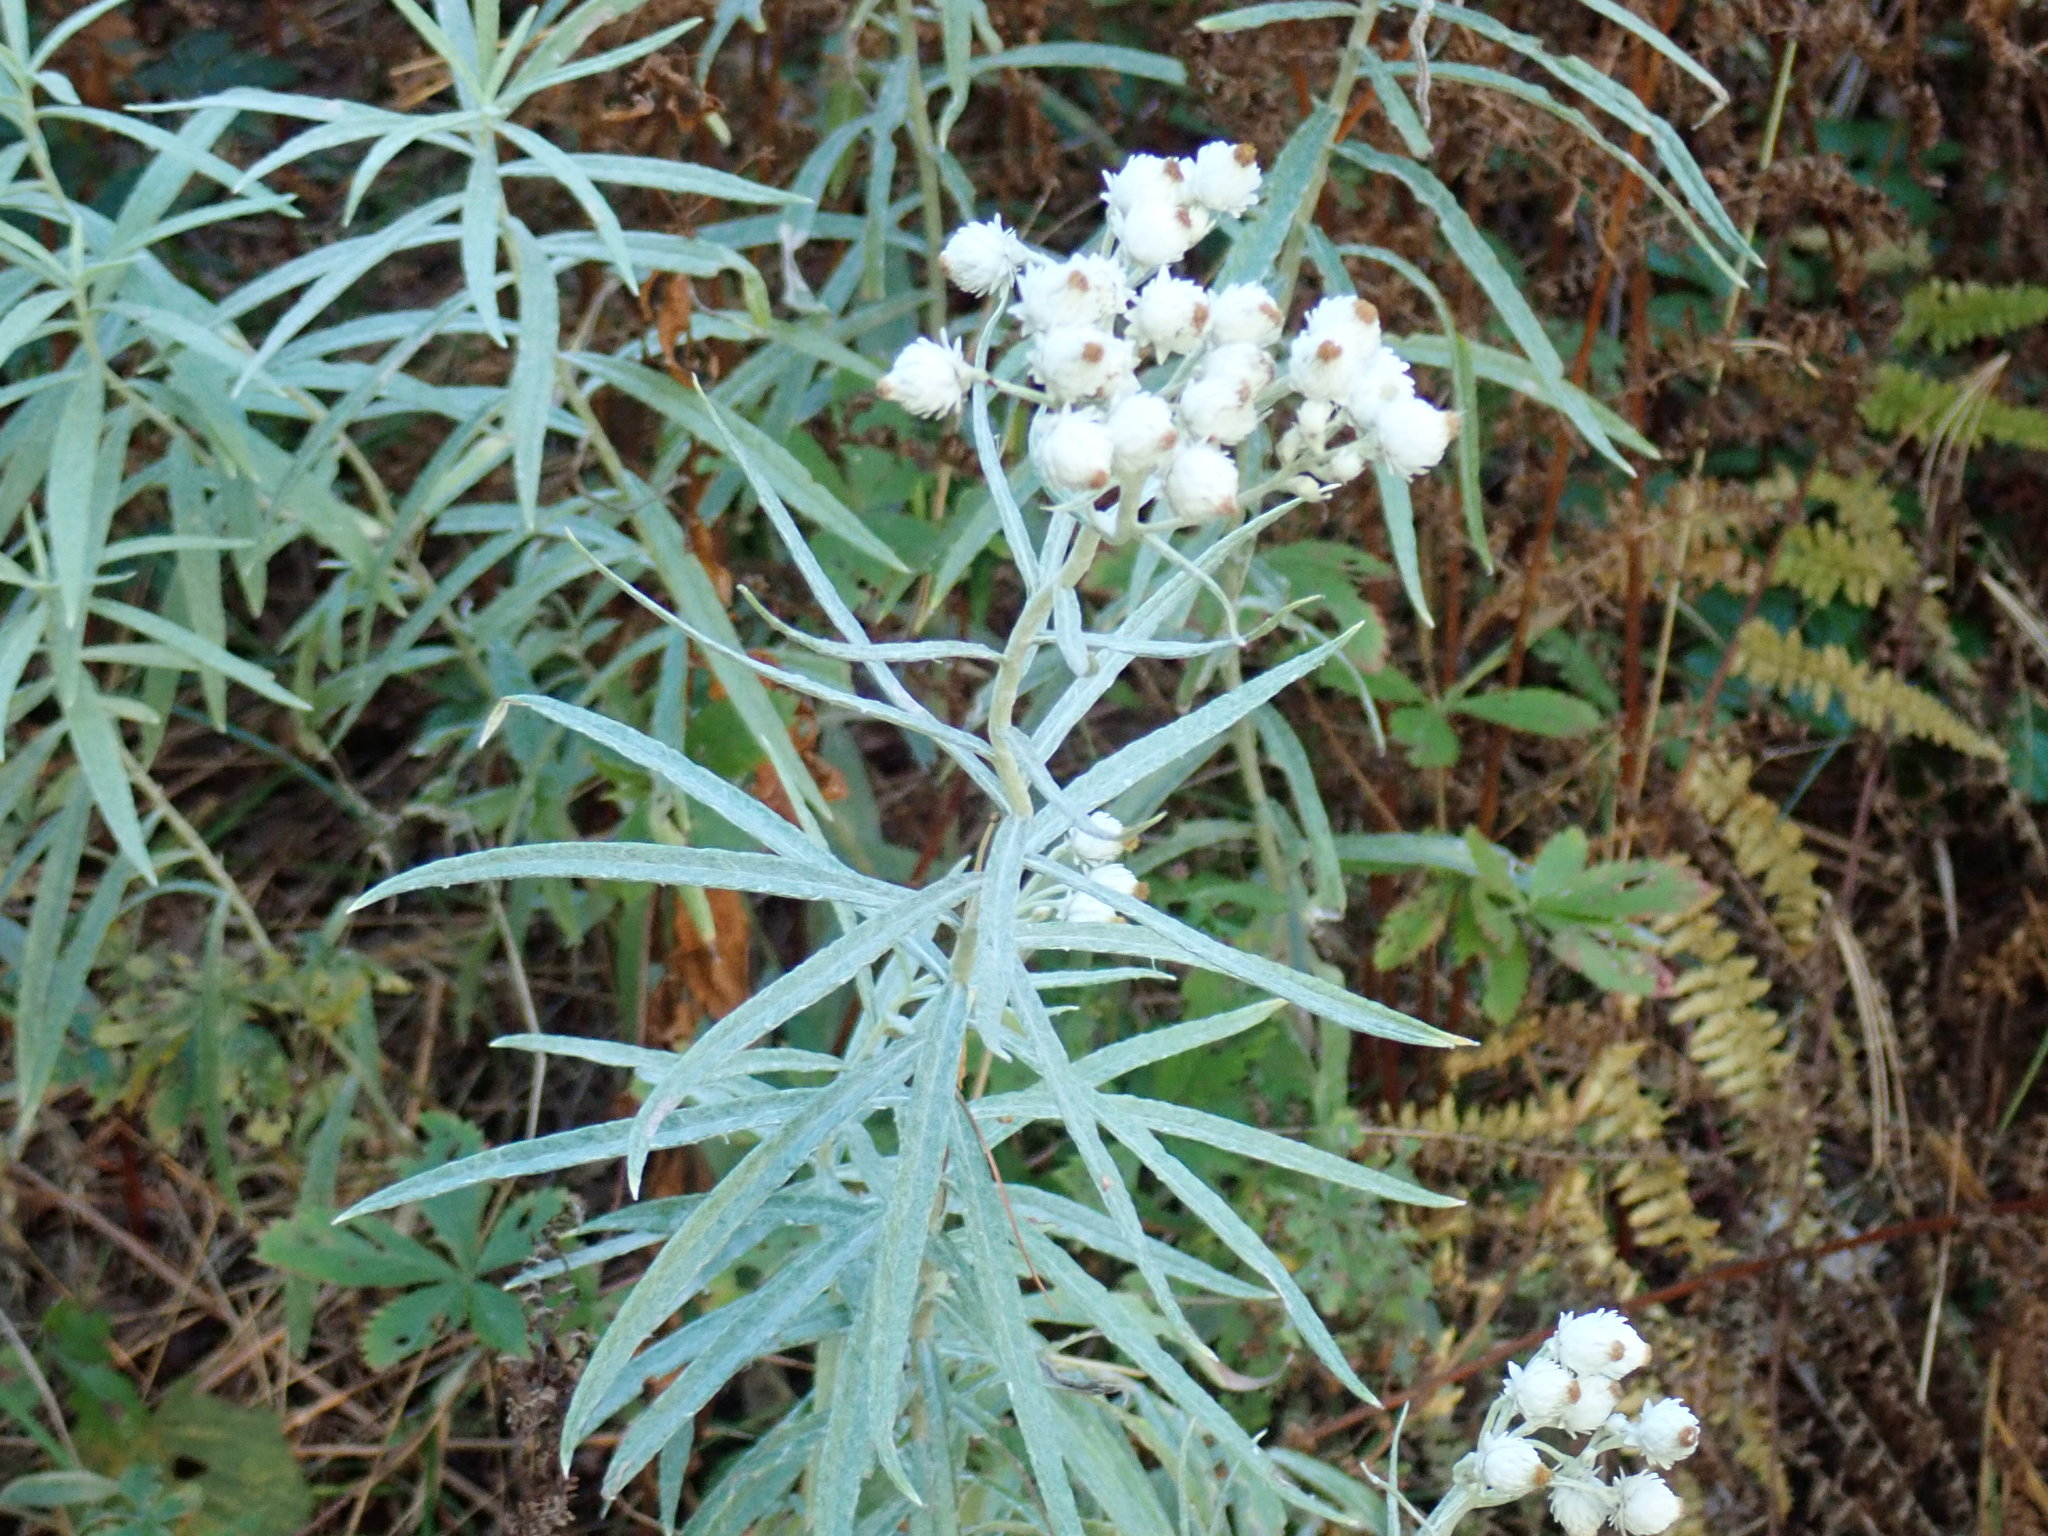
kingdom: Plantae
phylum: Tracheophyta
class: Magnoliopsida
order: Asterales
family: Asteraceae
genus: Anaphalis
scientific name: Anaphalis margaritacea
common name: Pearly everlasting
